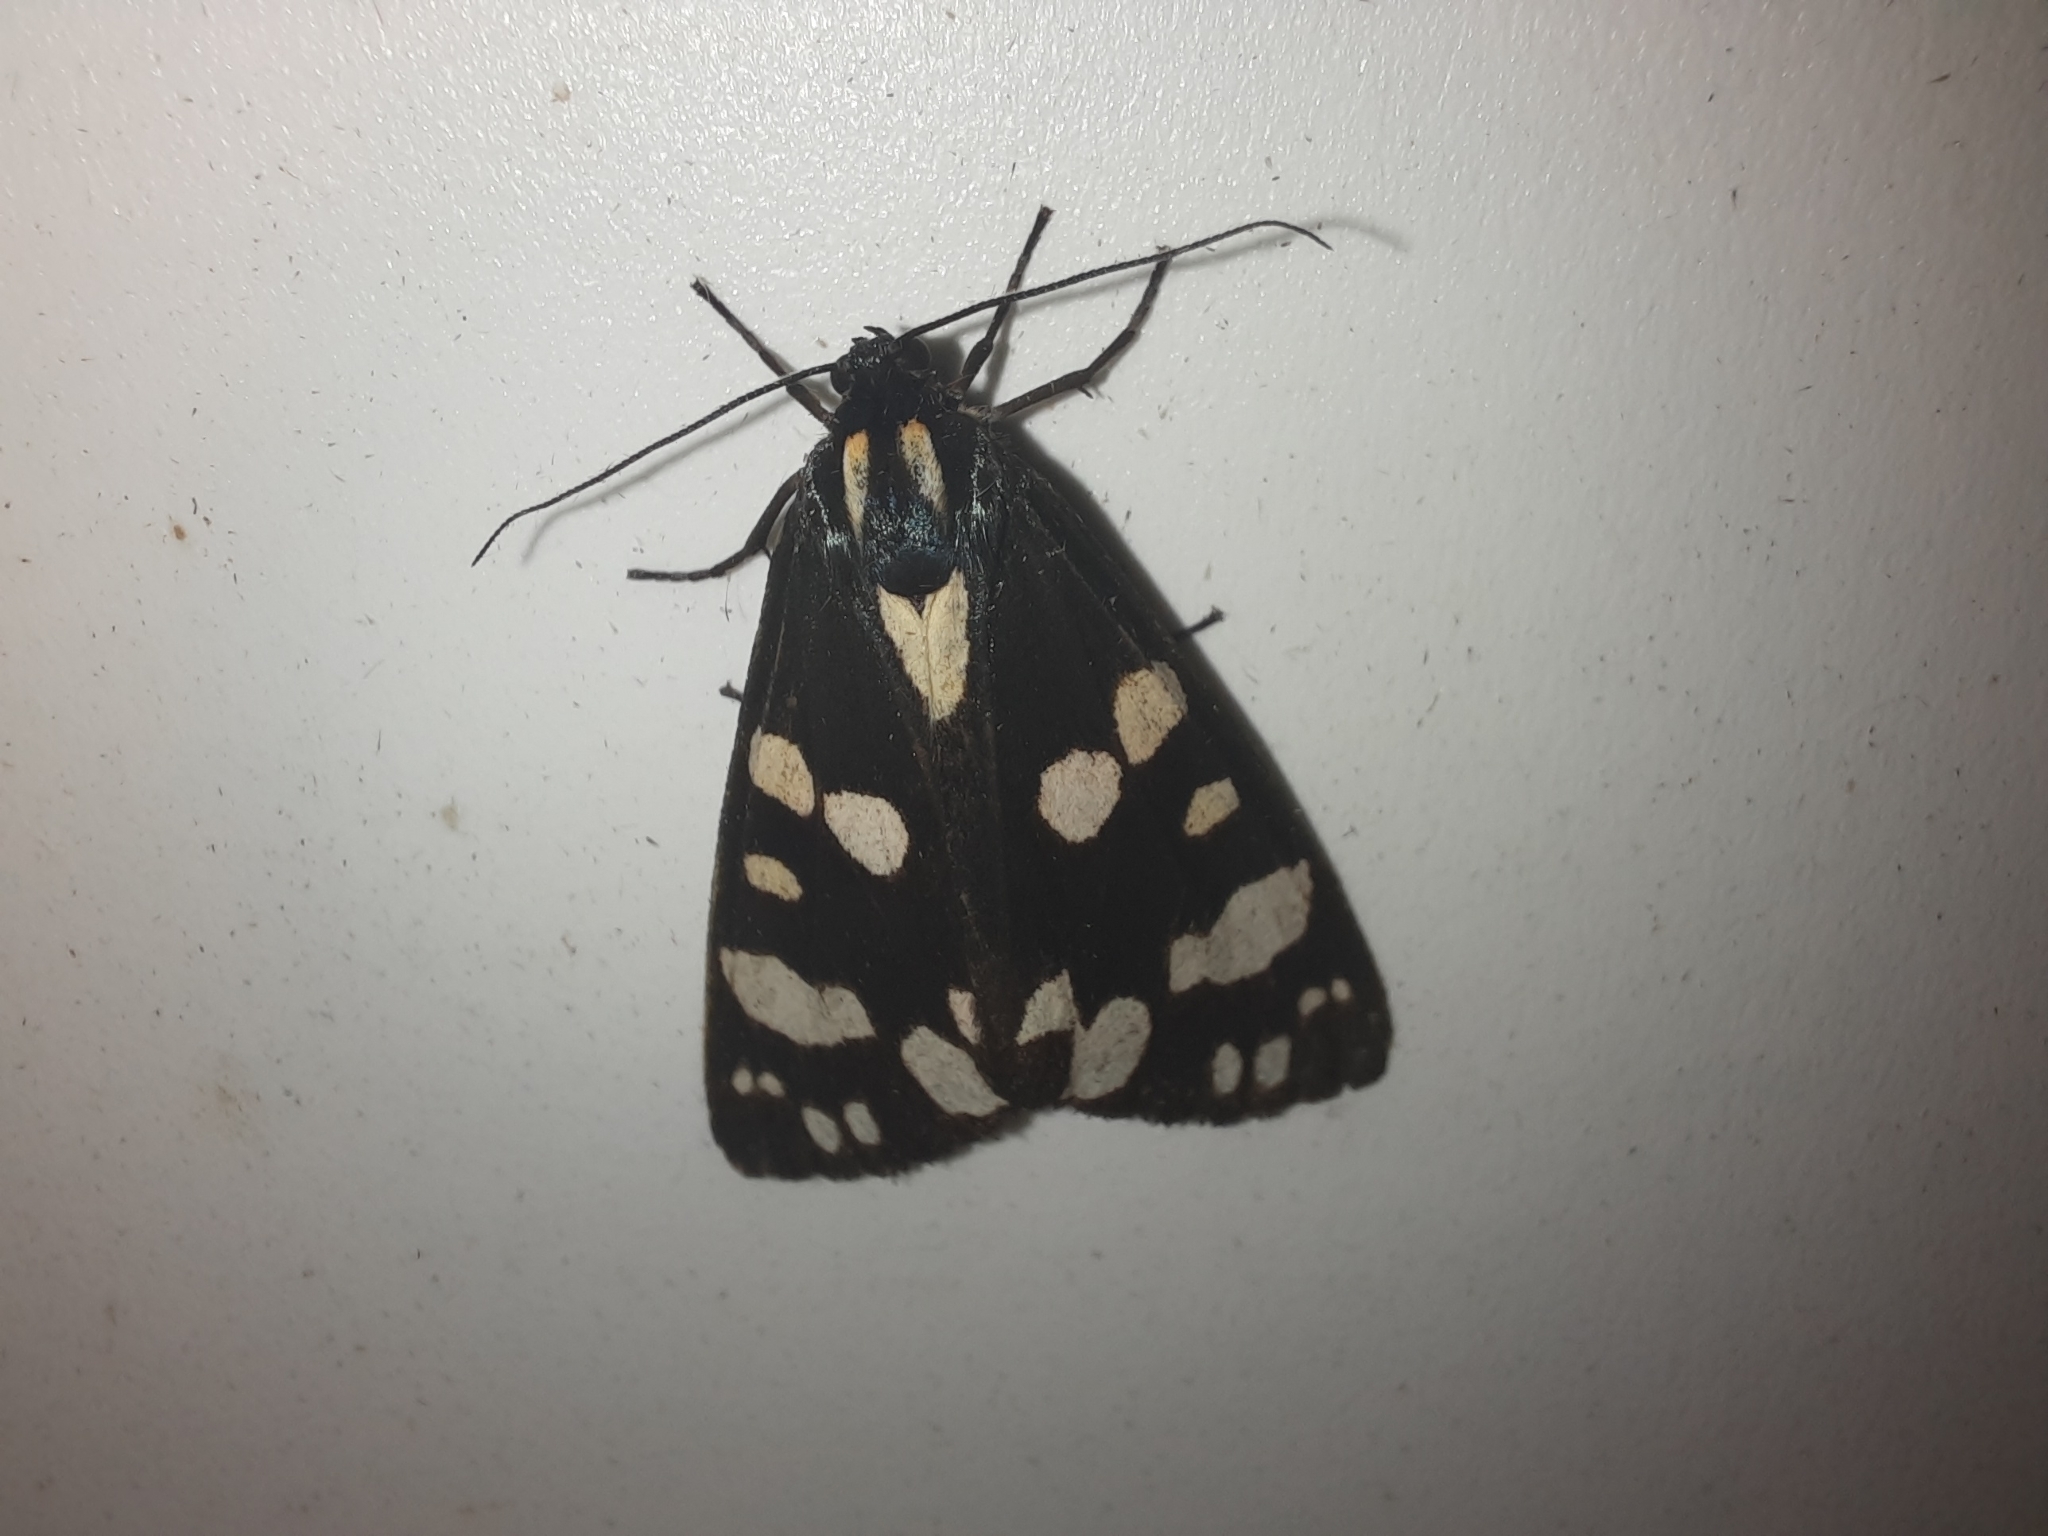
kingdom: Animalia
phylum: Arthropoda
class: Insecta
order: Lepidoptera
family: Erebidae
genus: Callimorpha
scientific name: Callimorpha dominula
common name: Scarlet tiger
